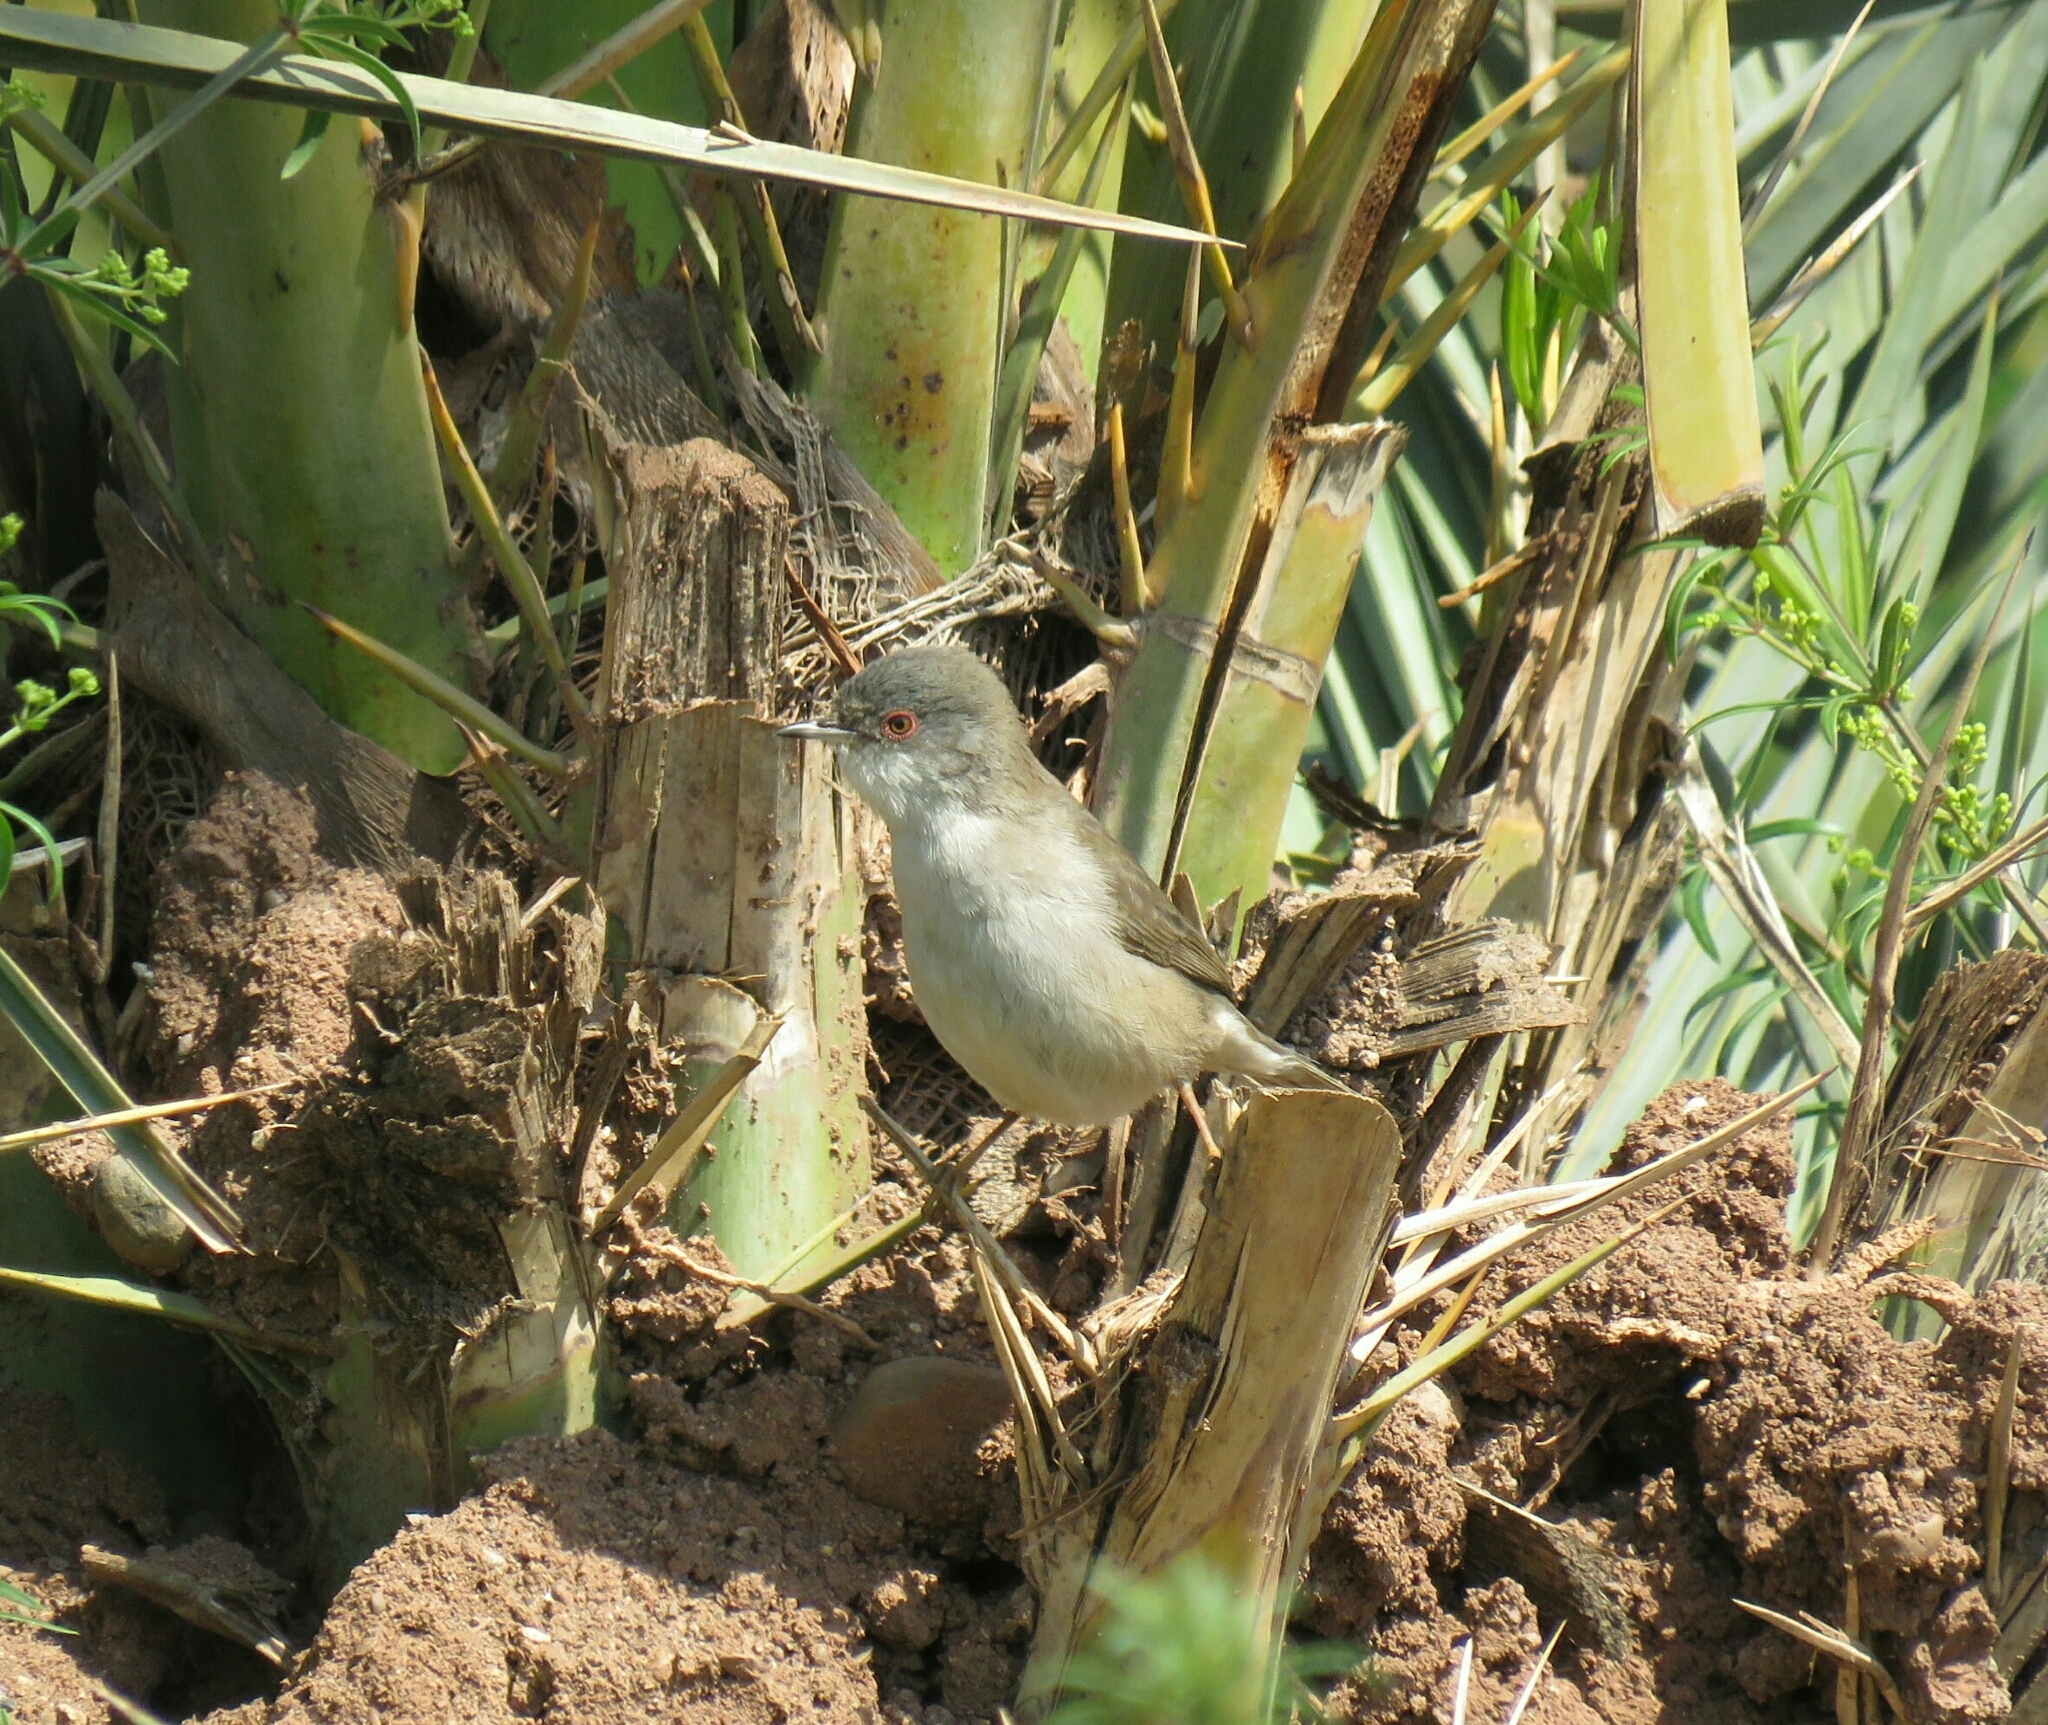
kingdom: Animalia
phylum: Chordata
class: Aves
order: Passeriformes
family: Sylviidae
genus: Curruca
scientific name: Curruca melanocephala
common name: Sardinian warbler
